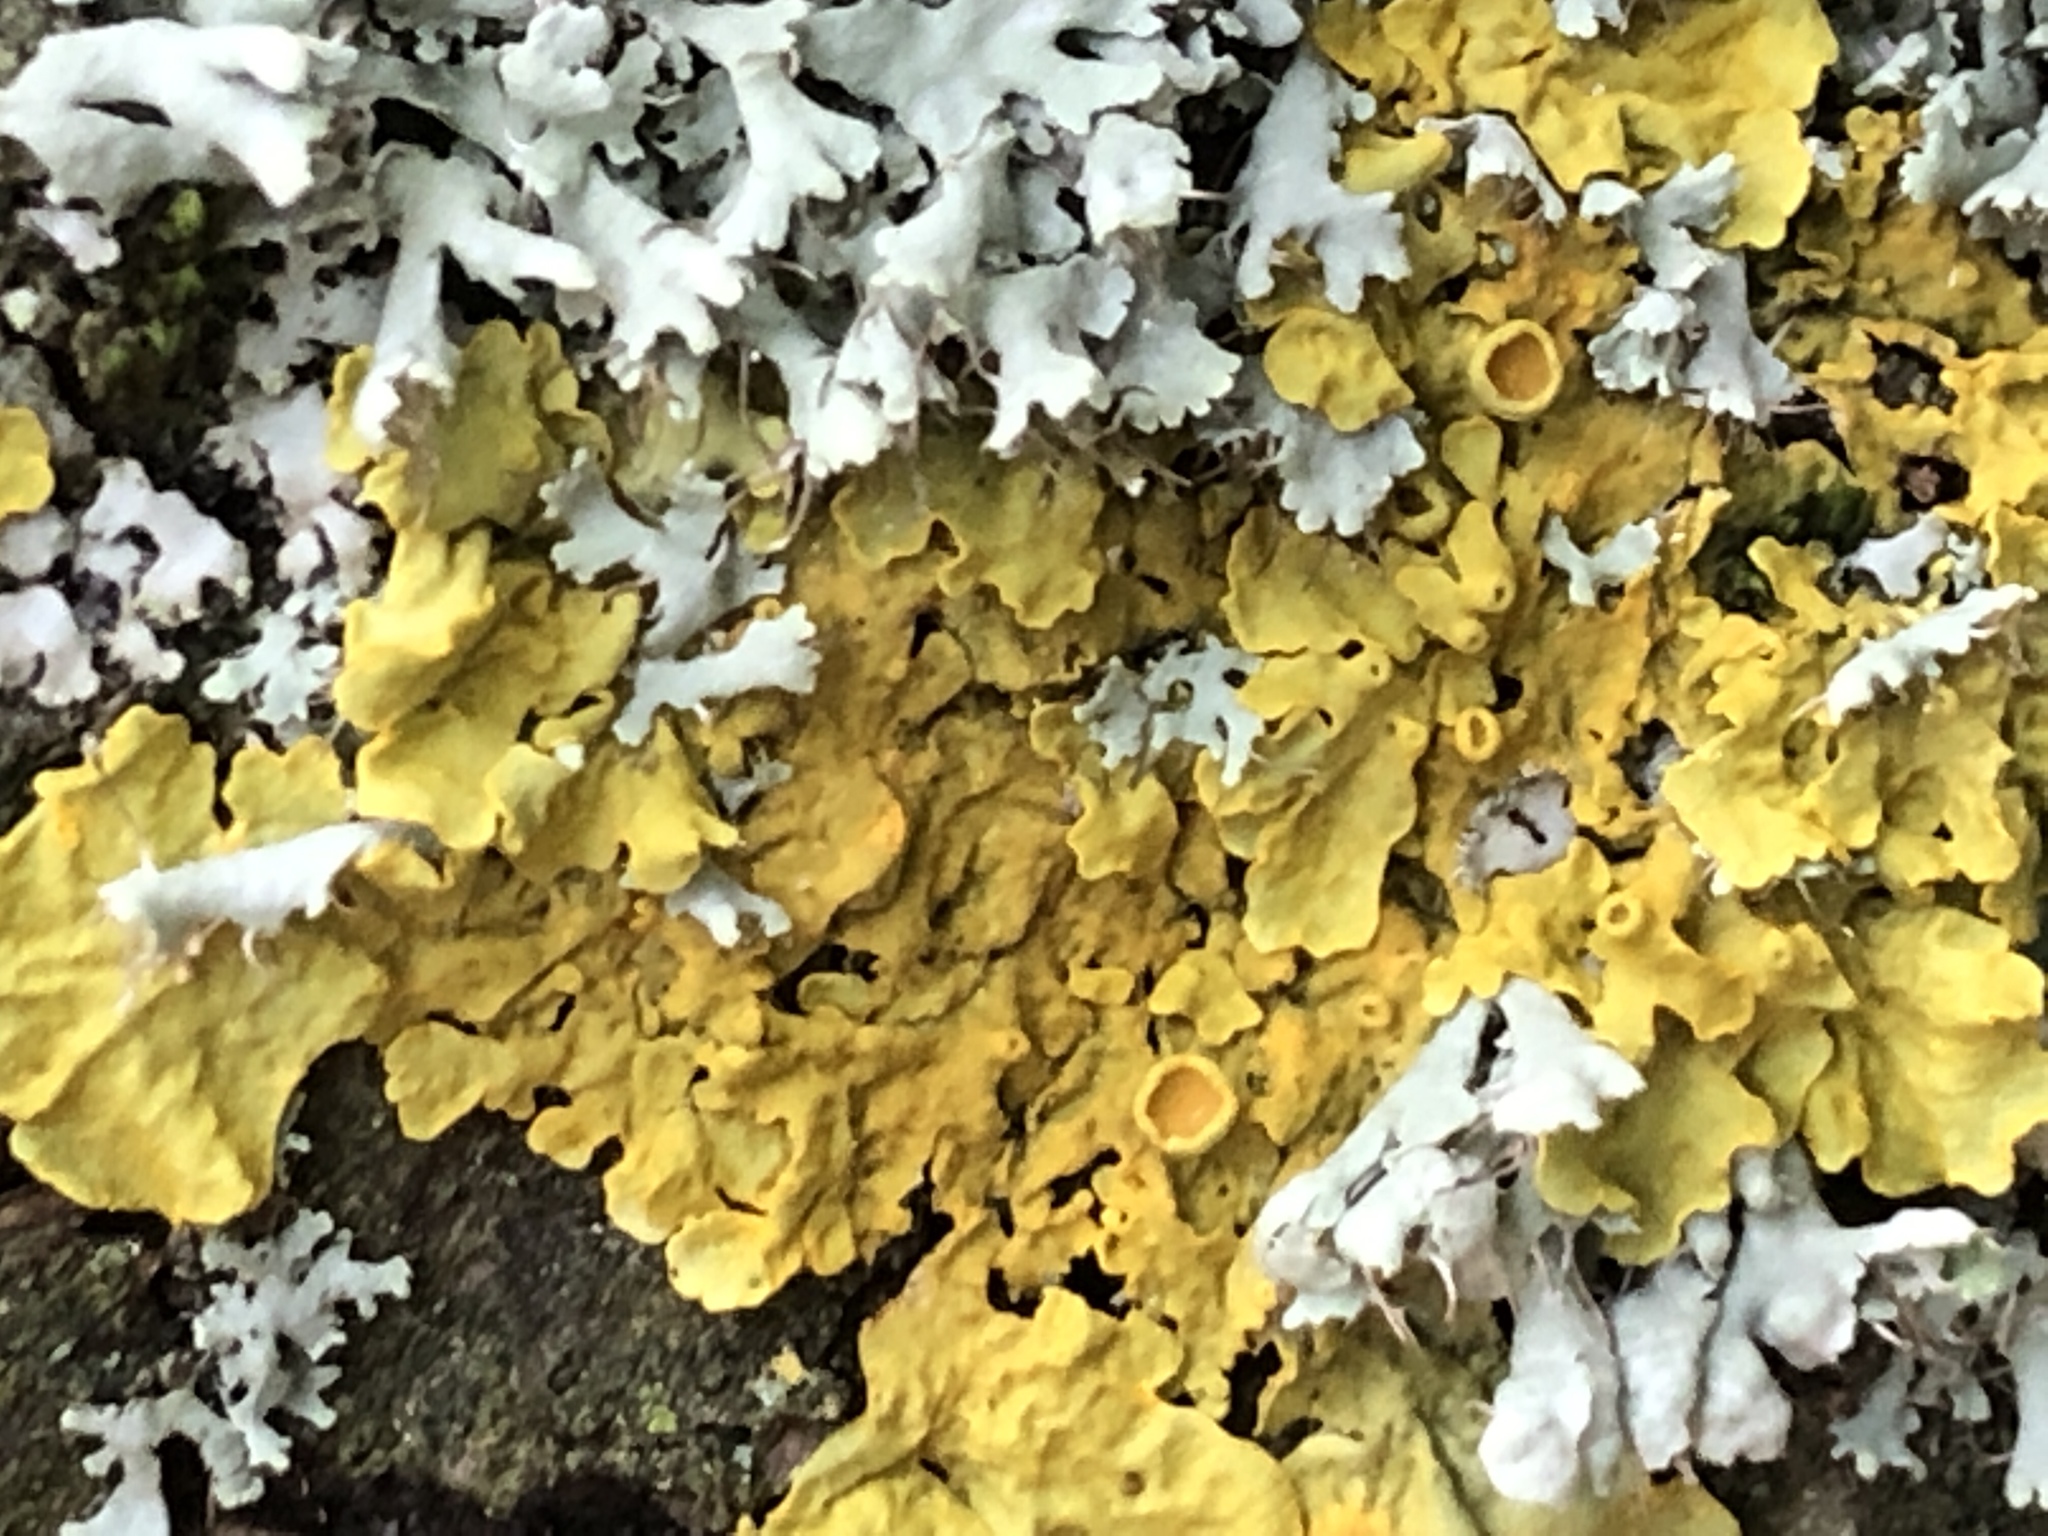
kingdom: Fungi
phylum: Ascomycota
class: Lecanoromycetes
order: Teloschistales
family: Teloschistaceae
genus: Xanthoria
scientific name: Xanthoria parietina
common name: Common orange lichen
